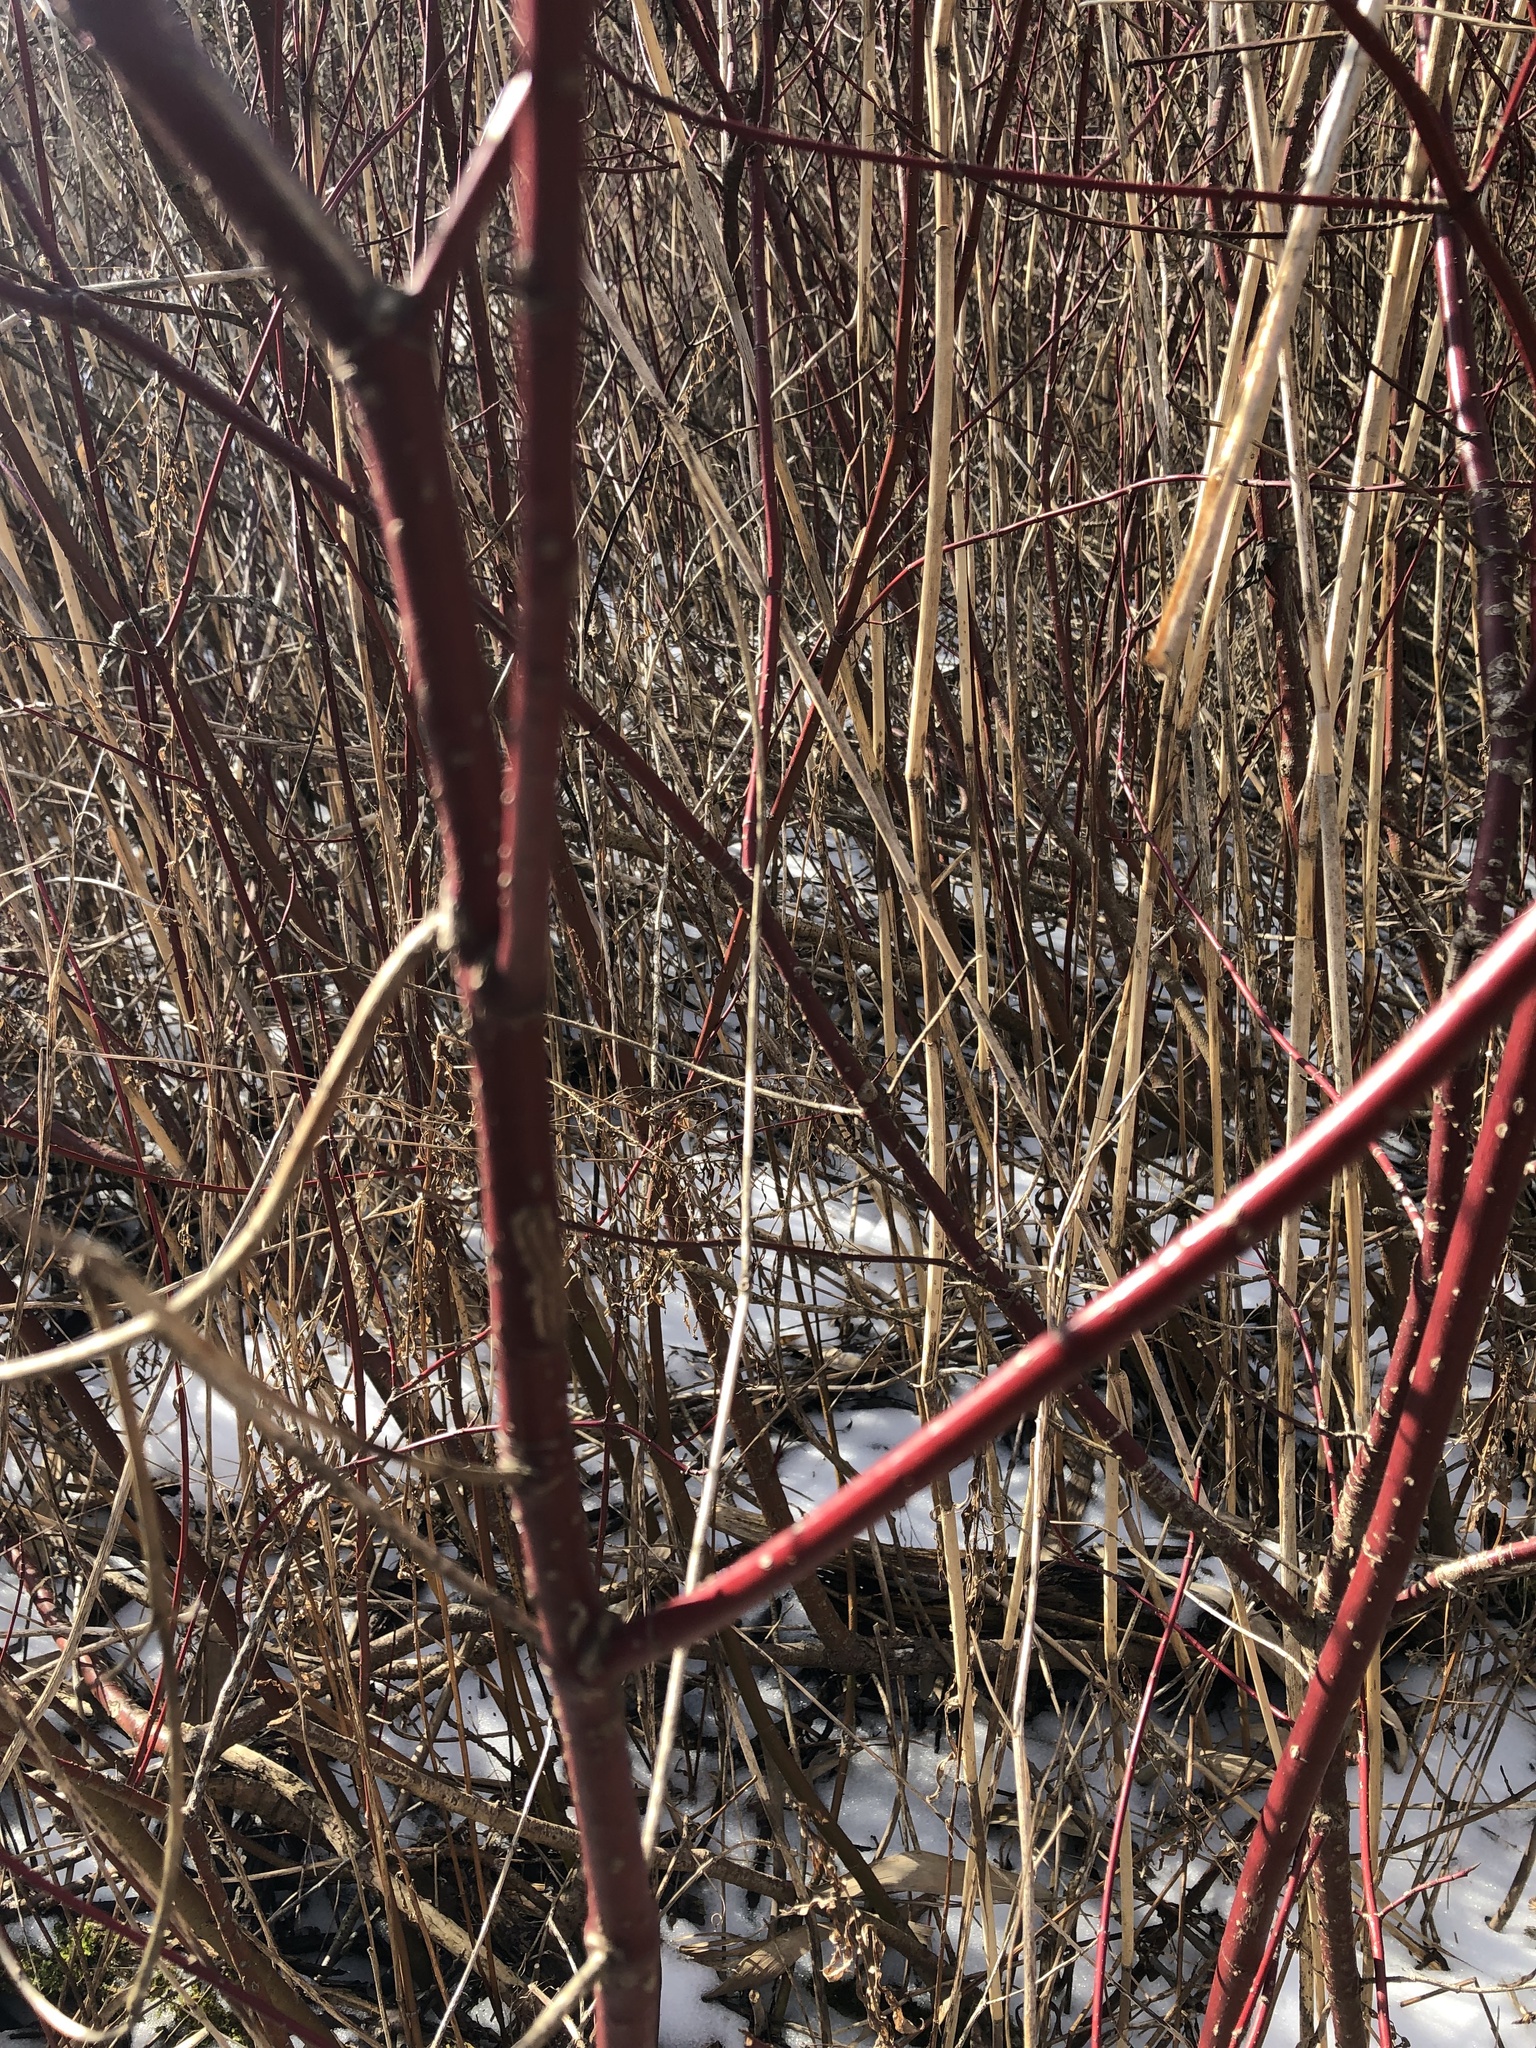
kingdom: Plantae
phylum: Tracheophyta
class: Magnoliopsida
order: Cornales
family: Cornaceae
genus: Cornus
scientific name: Cornus sericea
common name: Red-osier dogwood
